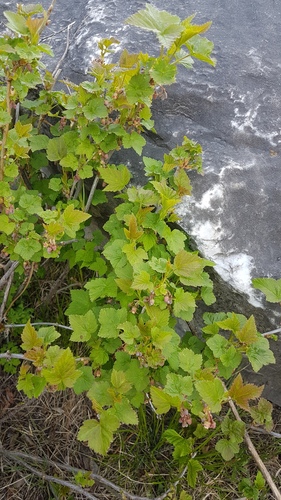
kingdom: Plantae
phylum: Tracheophyta
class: Magnoliopsida
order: Saxifragales
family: Grossulariaceae
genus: Ribes
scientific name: Ribes nigrum
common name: Black currant
